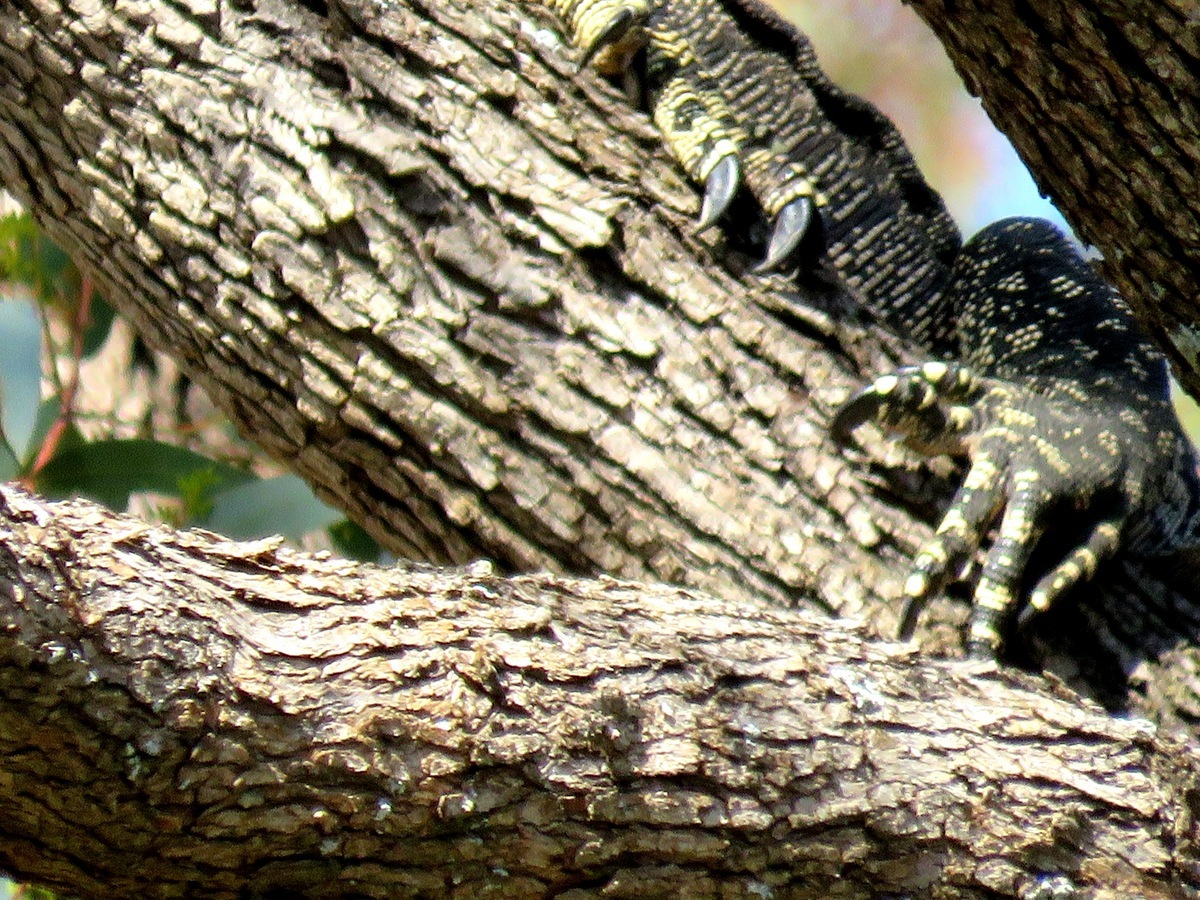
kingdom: Animalia
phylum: Chordata
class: Squamata
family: Varanidae
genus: Varanus
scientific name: Varanus varius
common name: Lace monitor
